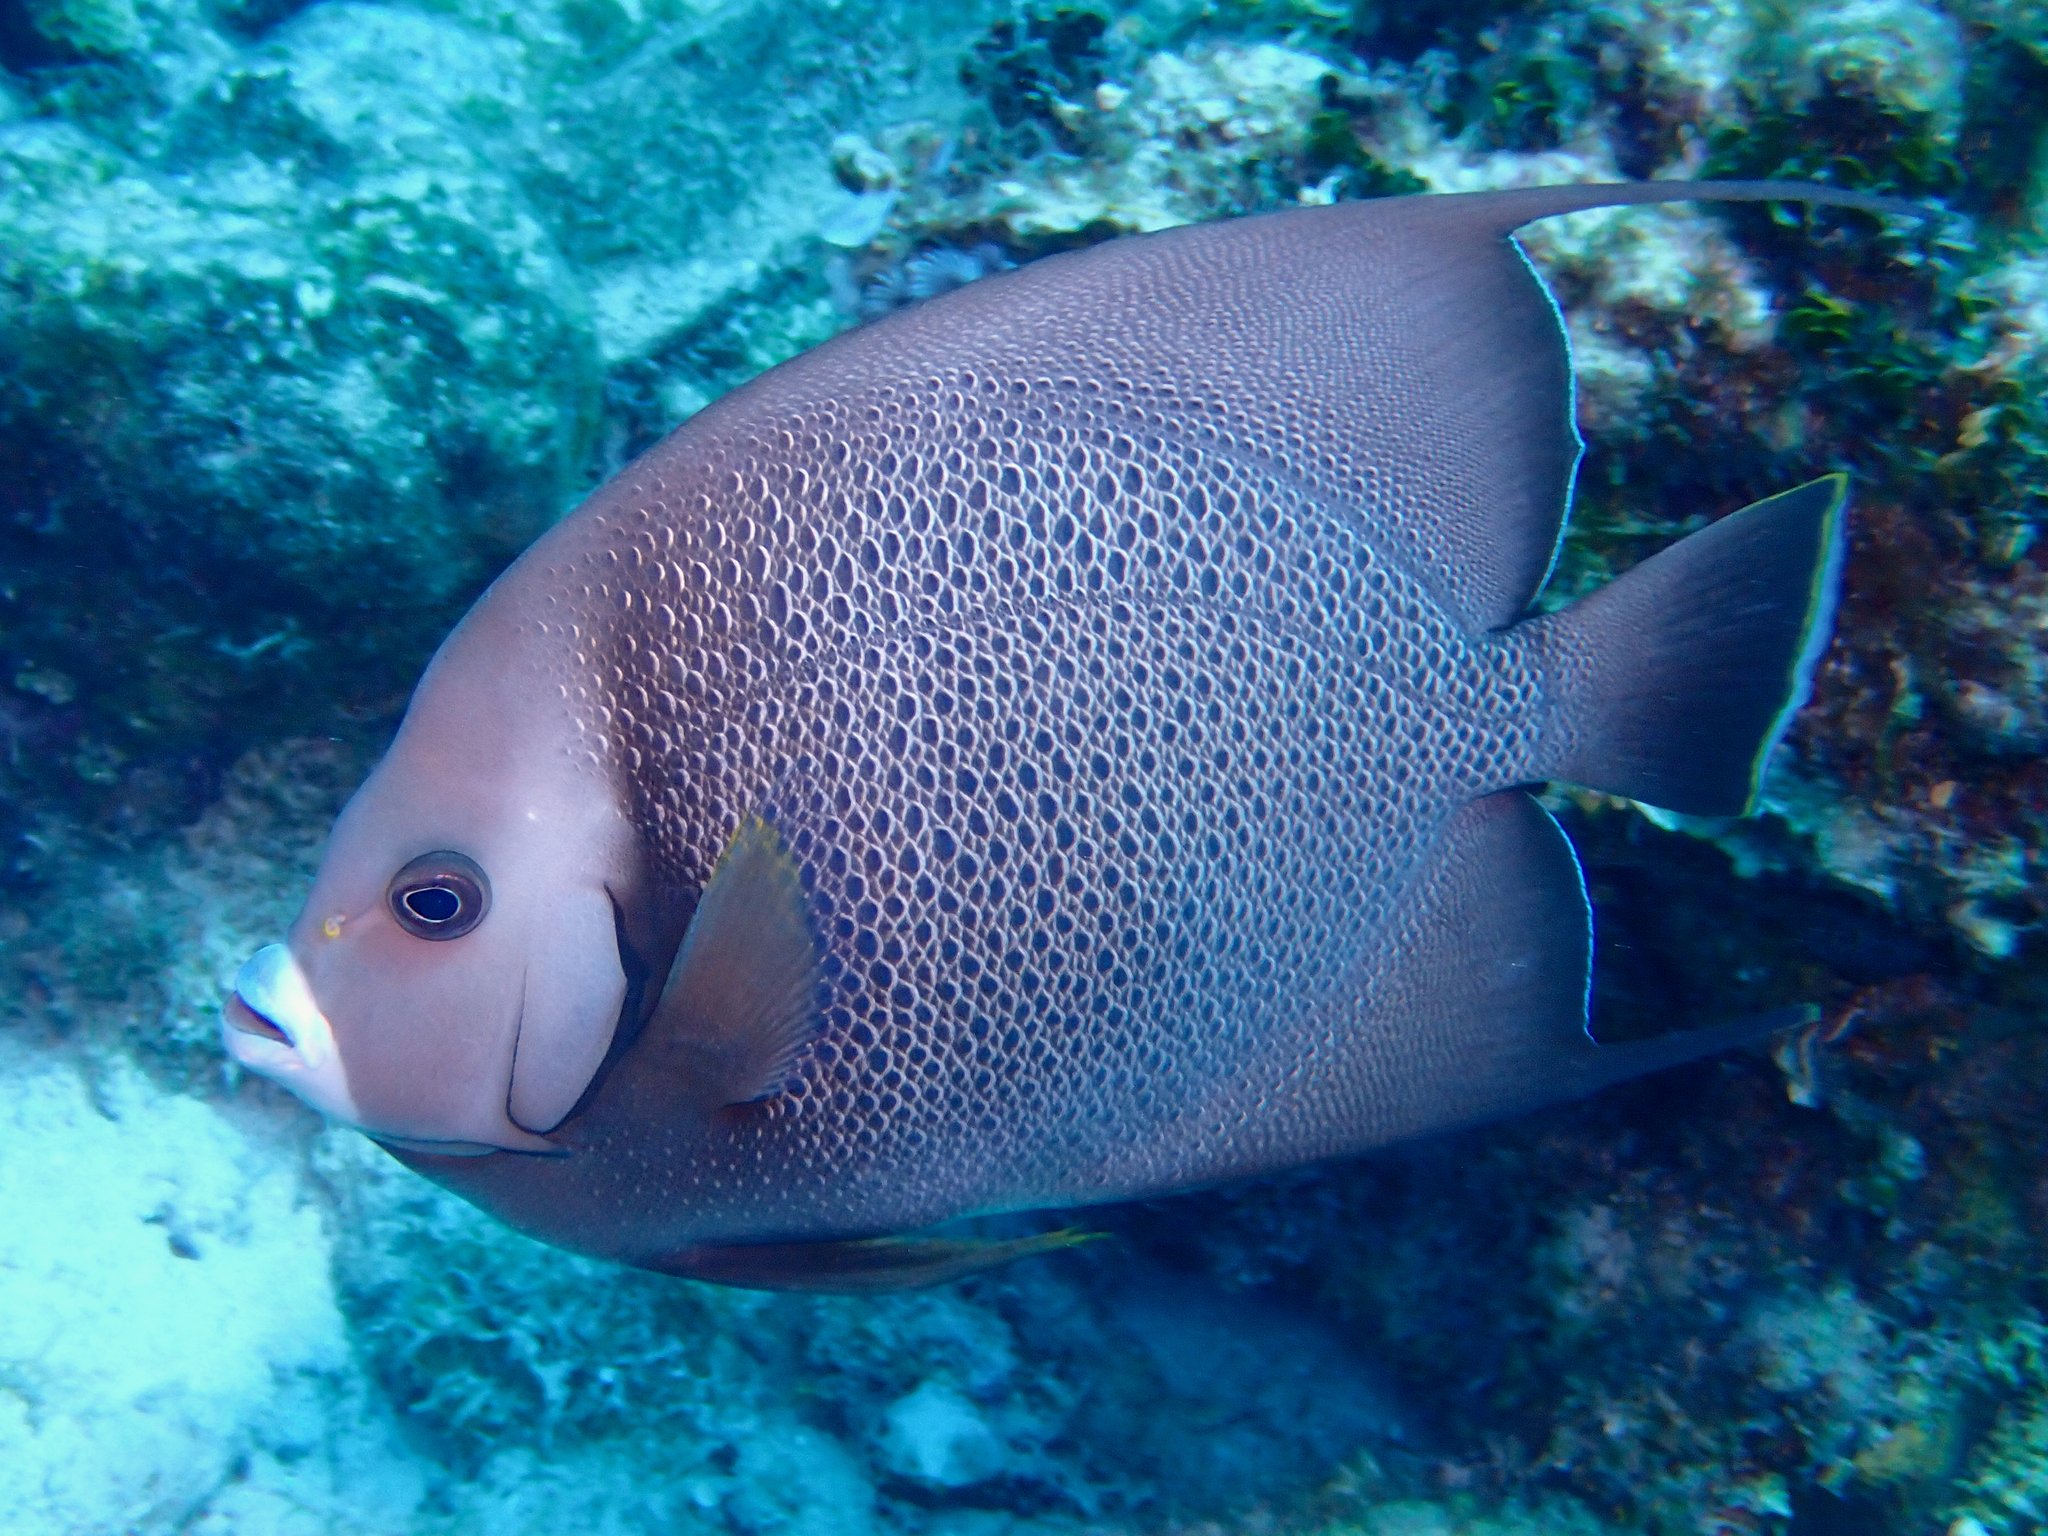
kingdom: Animalia
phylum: Chordata
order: Perciformes
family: Pomacanthidae
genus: Pomacanthus
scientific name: Pomacanthus arcuatus
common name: Gray angelfish
